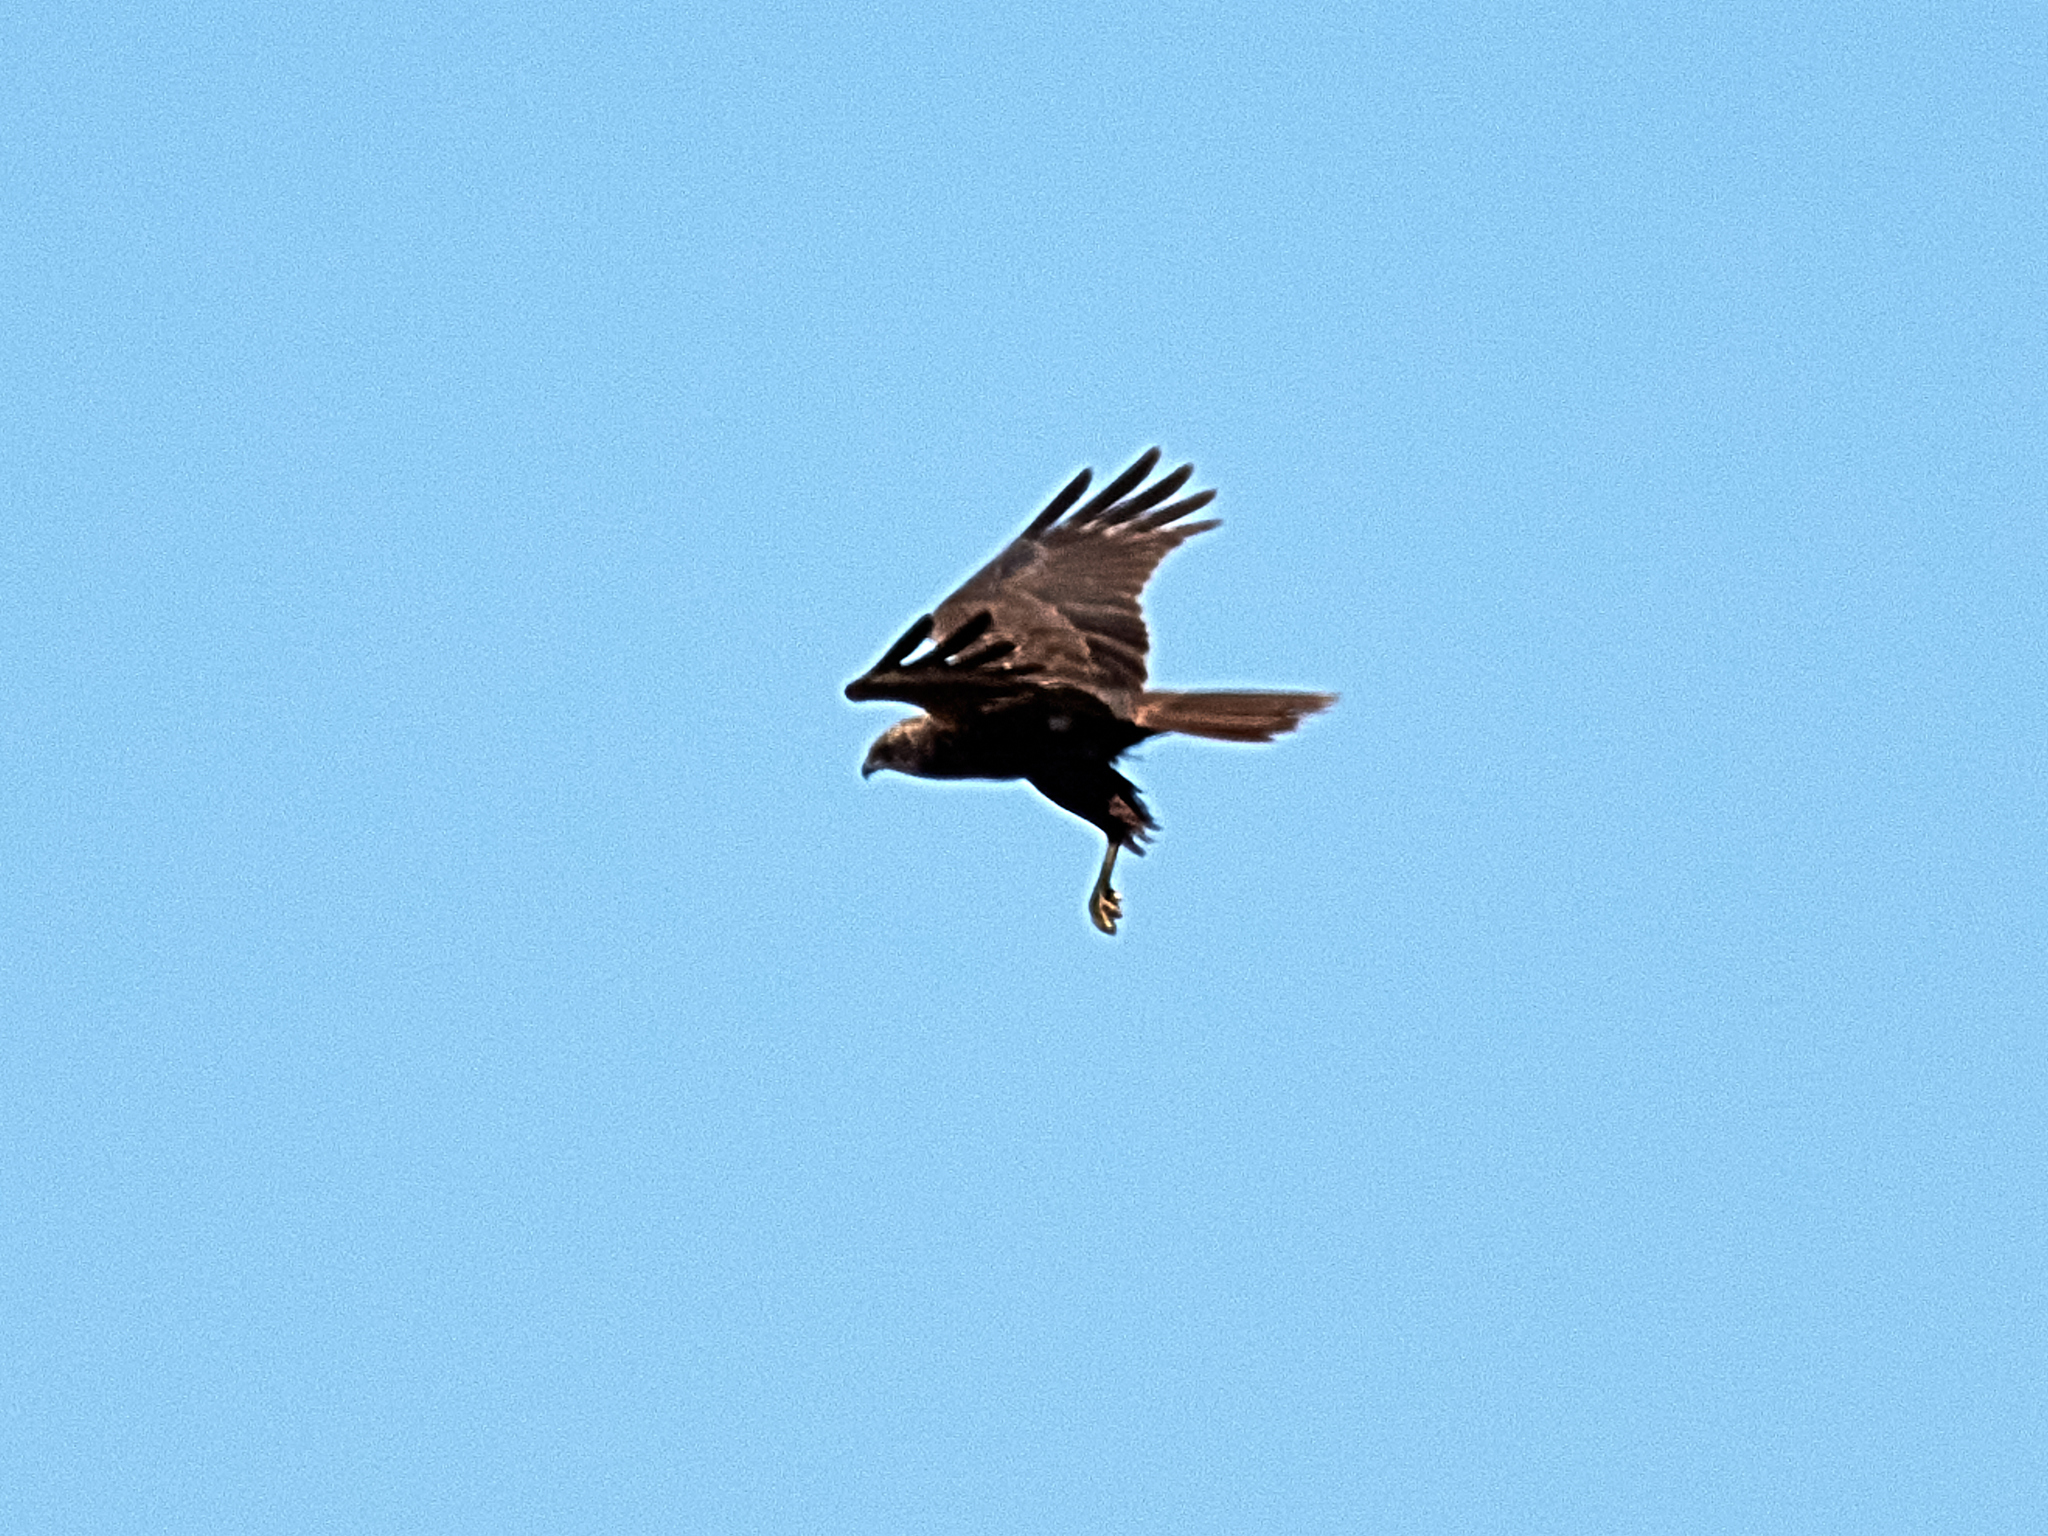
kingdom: Animalia
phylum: Chordata
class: Aves
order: Accipitriformes
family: Accipitridae
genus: Circus
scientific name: Circus aeruginosus
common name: Western marsh harrier
